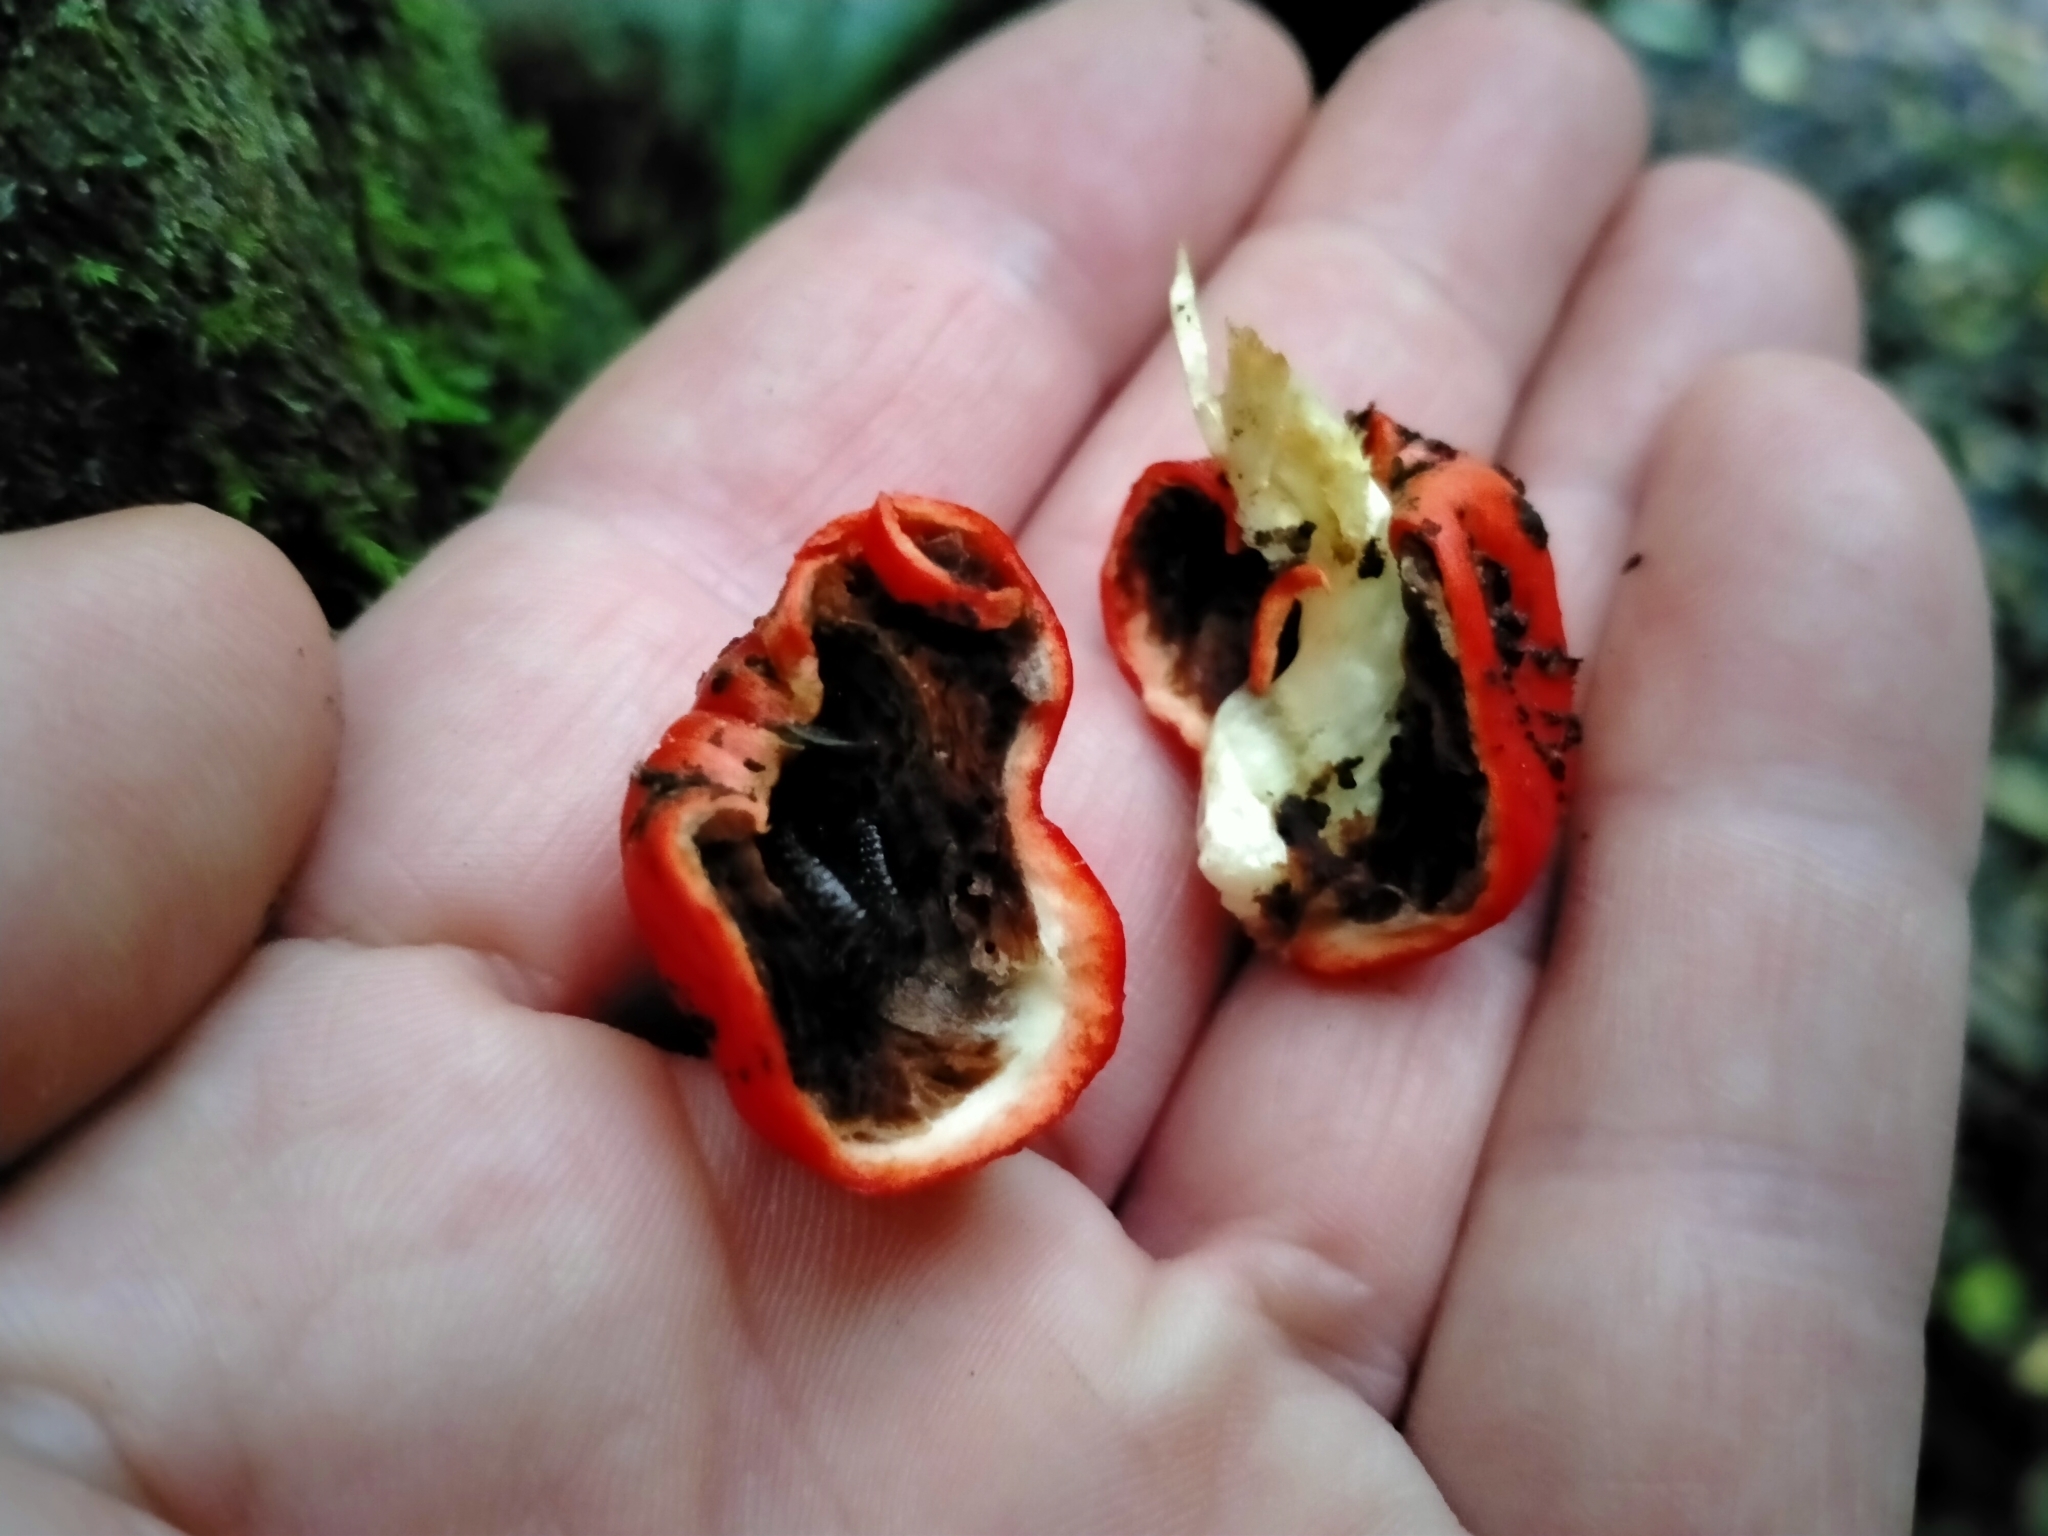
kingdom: Fungi
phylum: Basidiomycota
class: Agaricomycetes
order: Agaricales
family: Strophariaceae
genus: Leratiomyces
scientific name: Leratiomyces erythrocephalus
